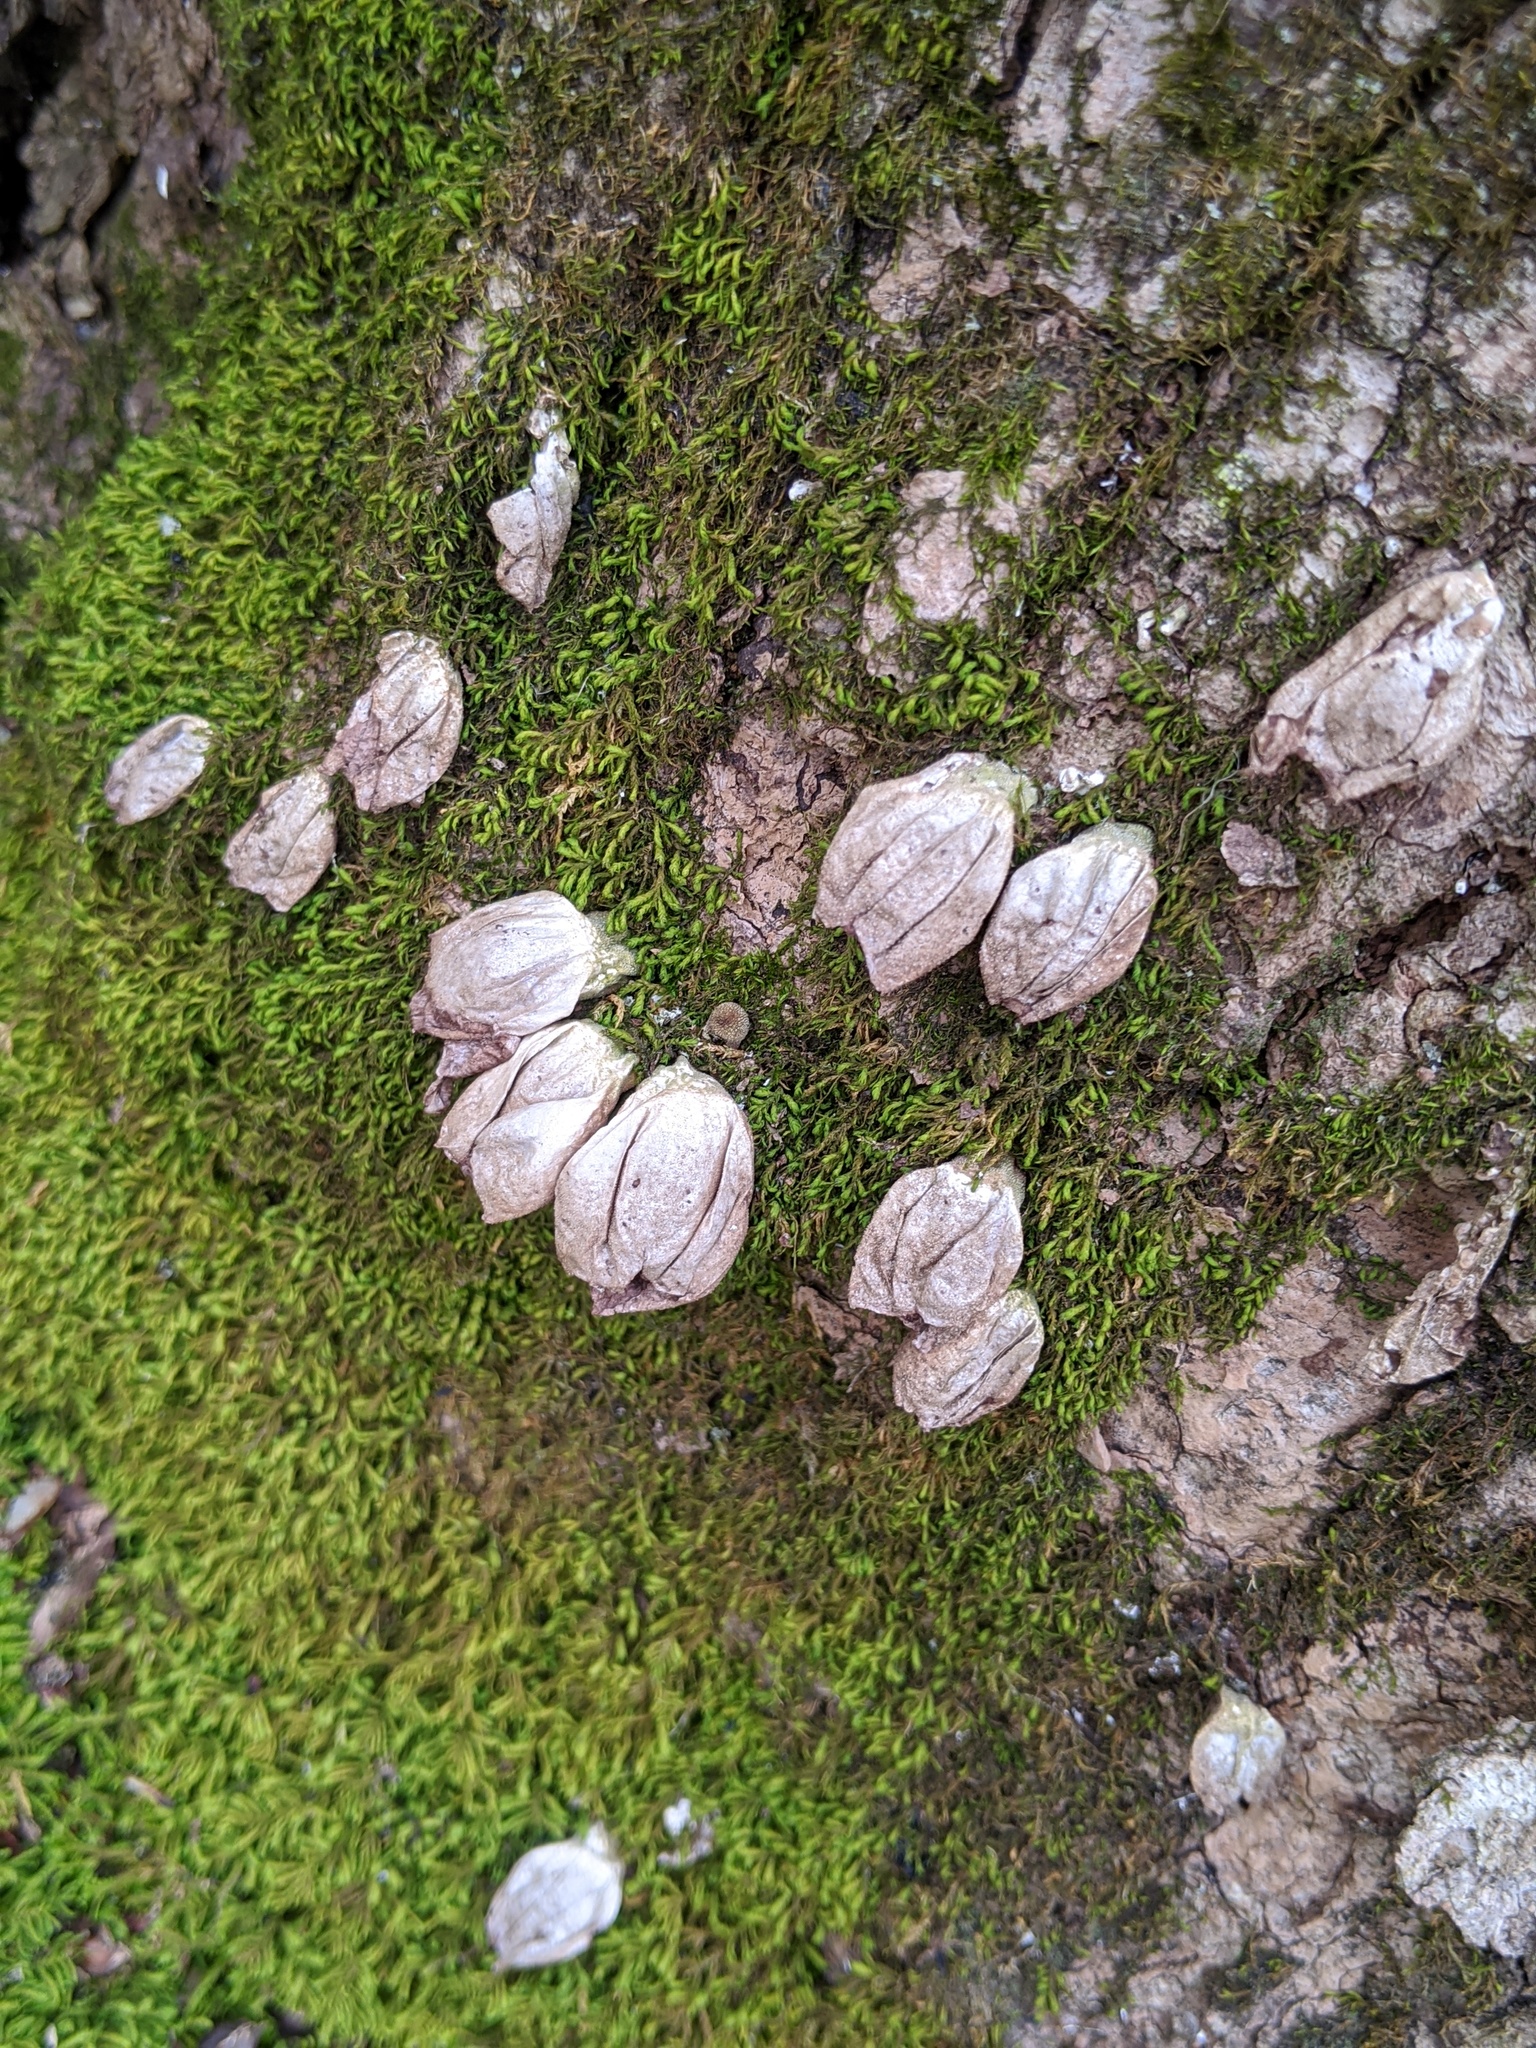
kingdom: Fungi
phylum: Basidiomycota
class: Agaricomycetes
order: Agaricales
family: Lycoperdaceae
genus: Apioperdon
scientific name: Apioperdon pyriforme
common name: Pear-shaped puffball
